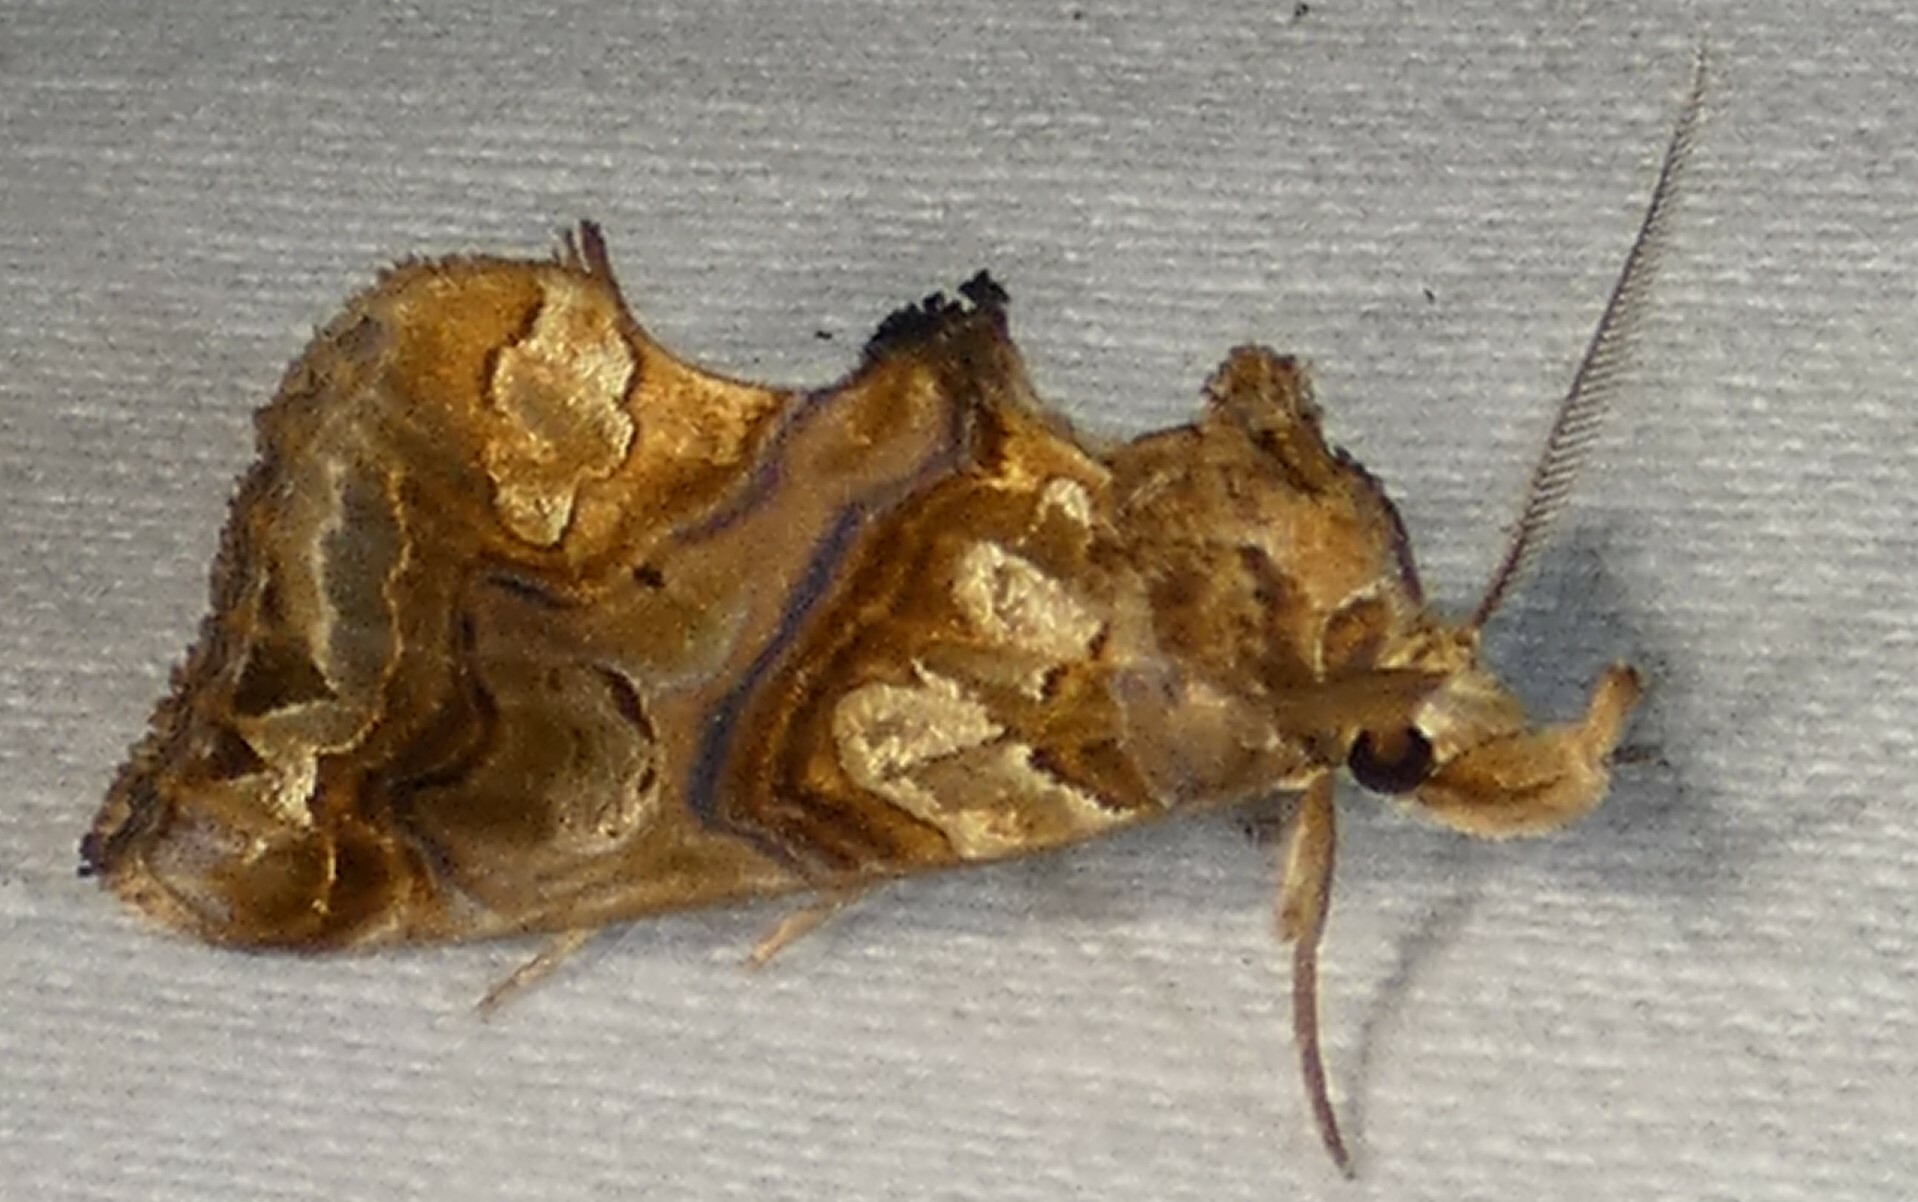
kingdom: Animalia
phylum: Arthropoda
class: Insecta
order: Lepidoptera
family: Erebidae
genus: Plusiodonta
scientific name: Plusiodonta compressipalpis
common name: Moonseed moth
